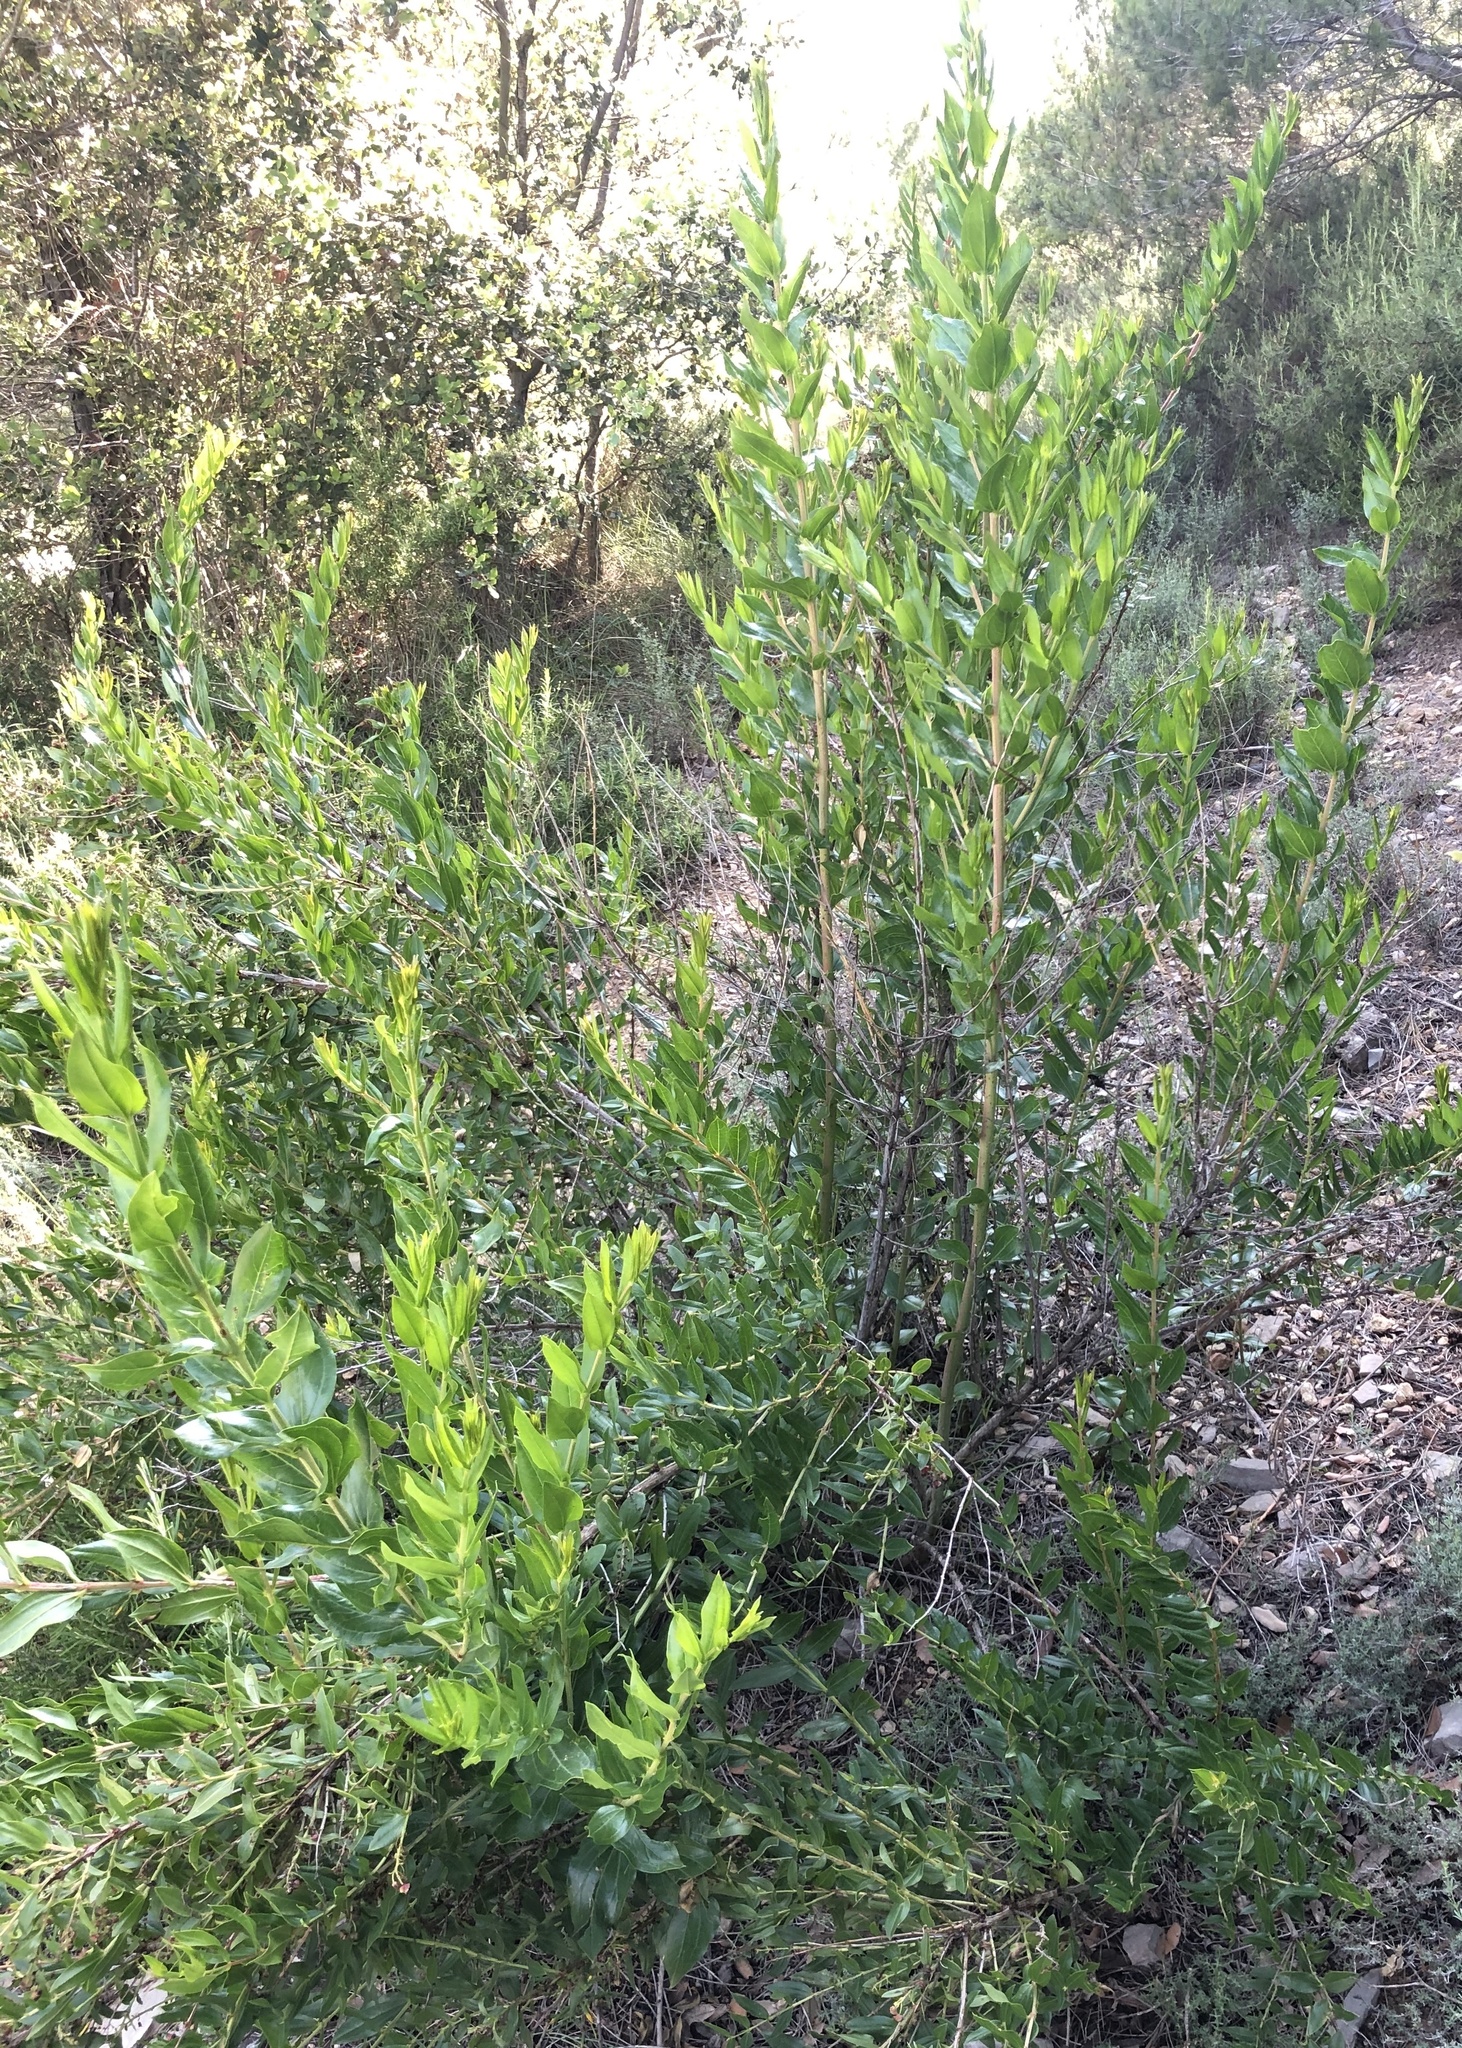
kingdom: Plantae
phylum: Tracheophyta
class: Magnoliopsida
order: Cucurbitales
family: Coriariaceae
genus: Coriaria
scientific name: Coriaria myrtifolia
